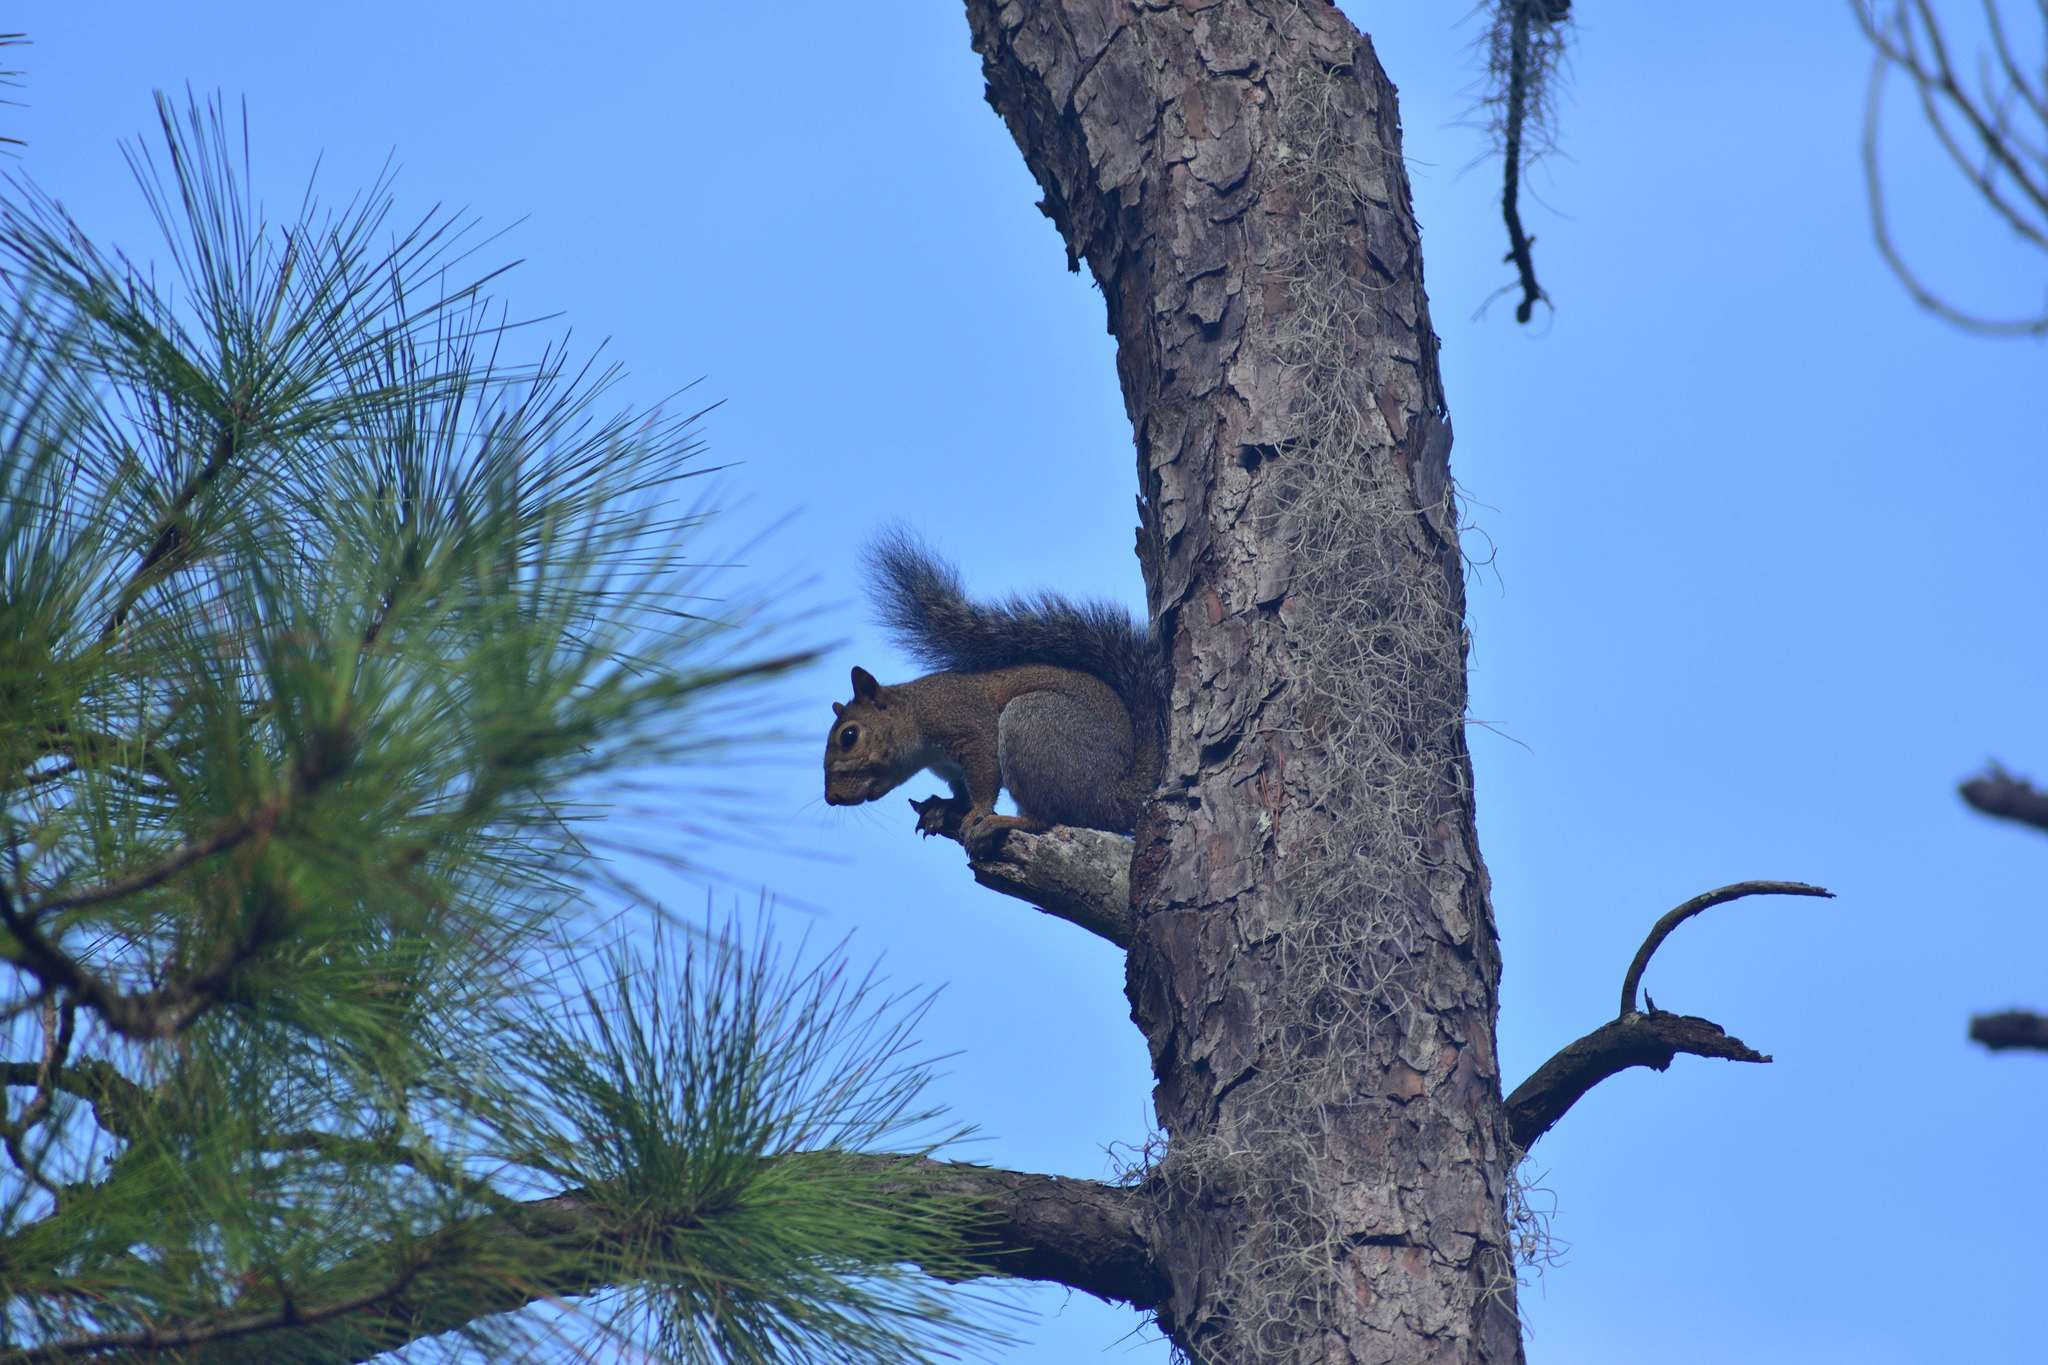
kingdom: Animalia
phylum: Chordata
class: Mammalia
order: Rodentia
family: Sciuridae
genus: Sciurus
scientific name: Sciurus carolinensis
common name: Eastern gray squirrel
